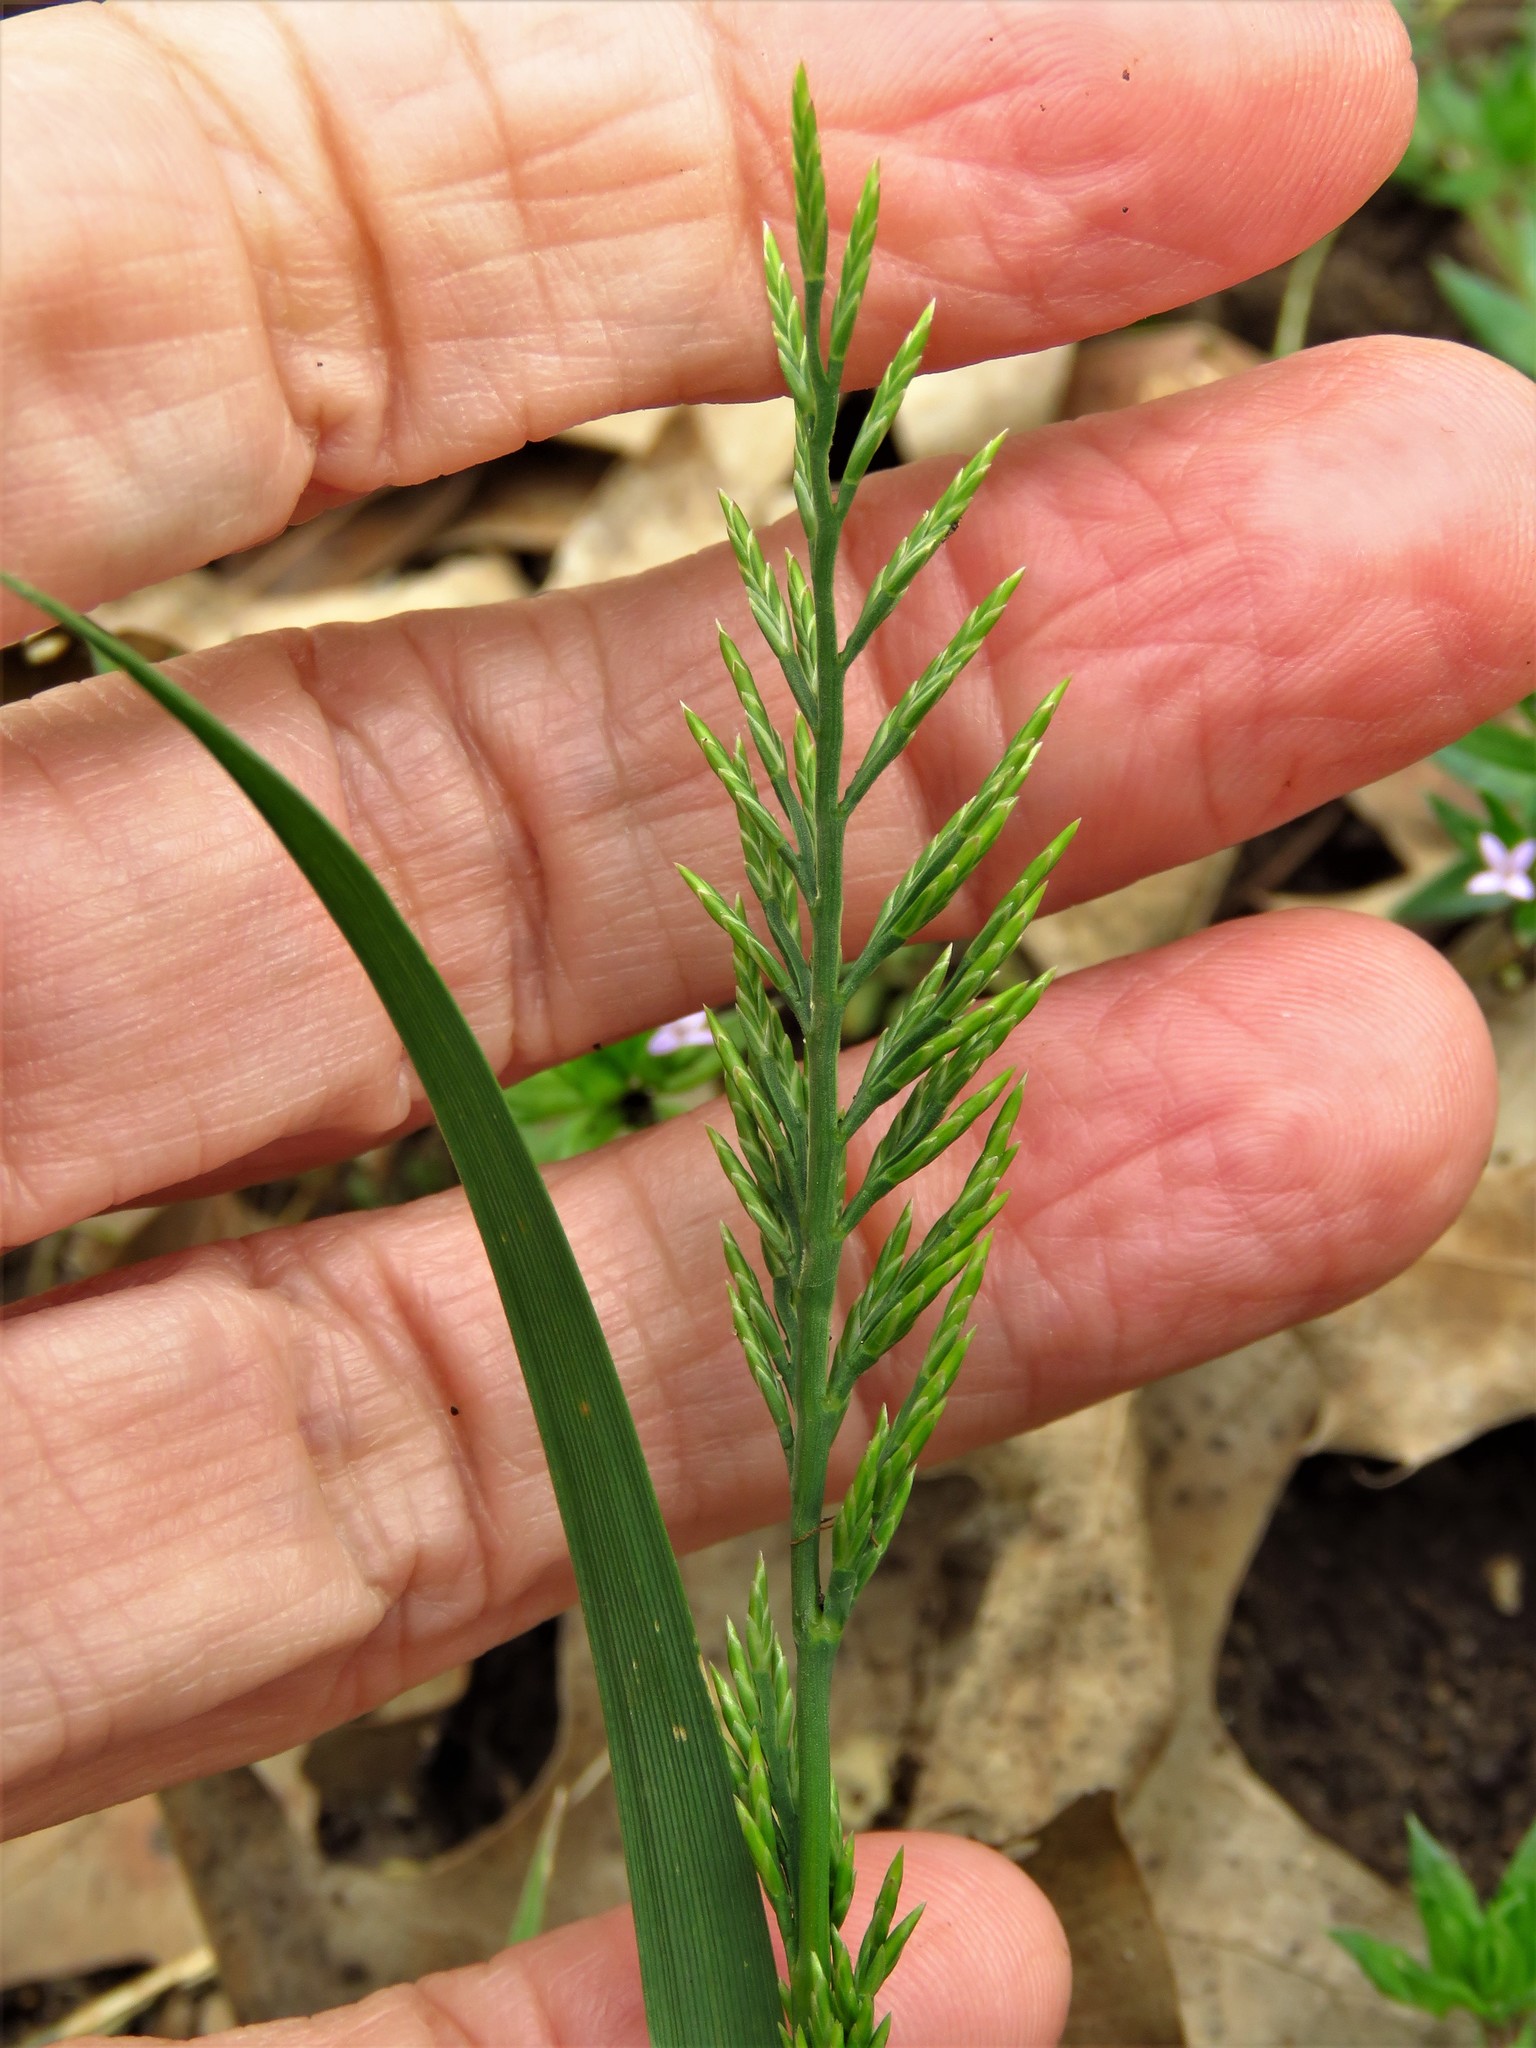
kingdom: Plantae
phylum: Tracheophyta
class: Liliopsida
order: Poales
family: Poaceae
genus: Catapodium
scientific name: Catapodium rigidum
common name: Fern-grass
